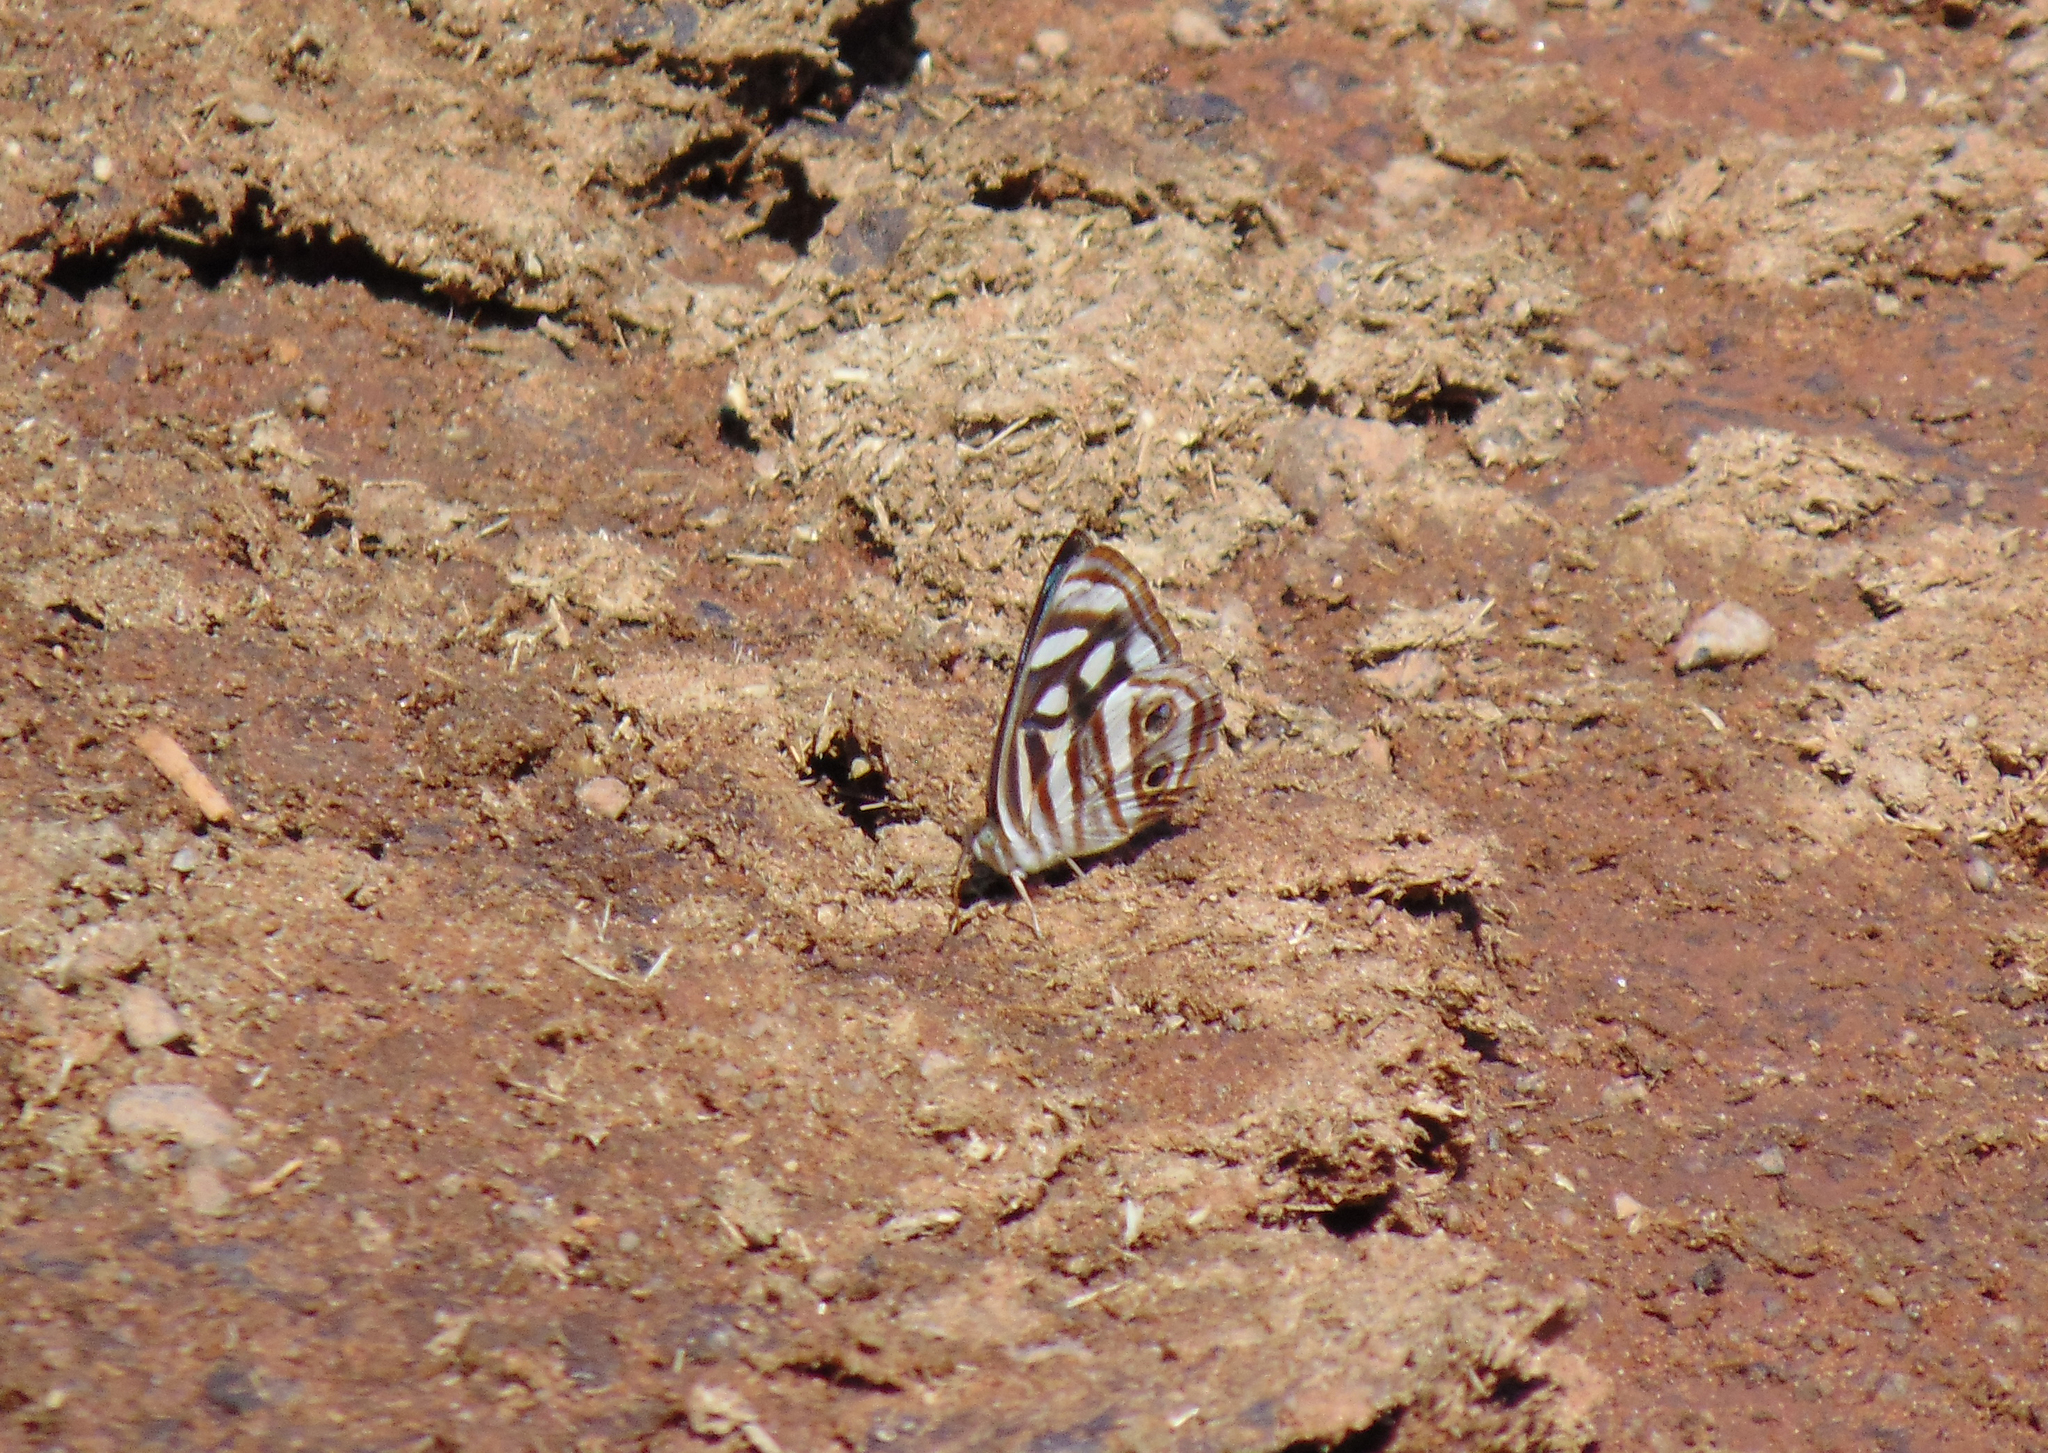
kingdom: Animalia
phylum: Arthropoda
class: Insecta
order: Lepidoptera
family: Nymphalidae
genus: Dynamine
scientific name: Dynamine mylitta
